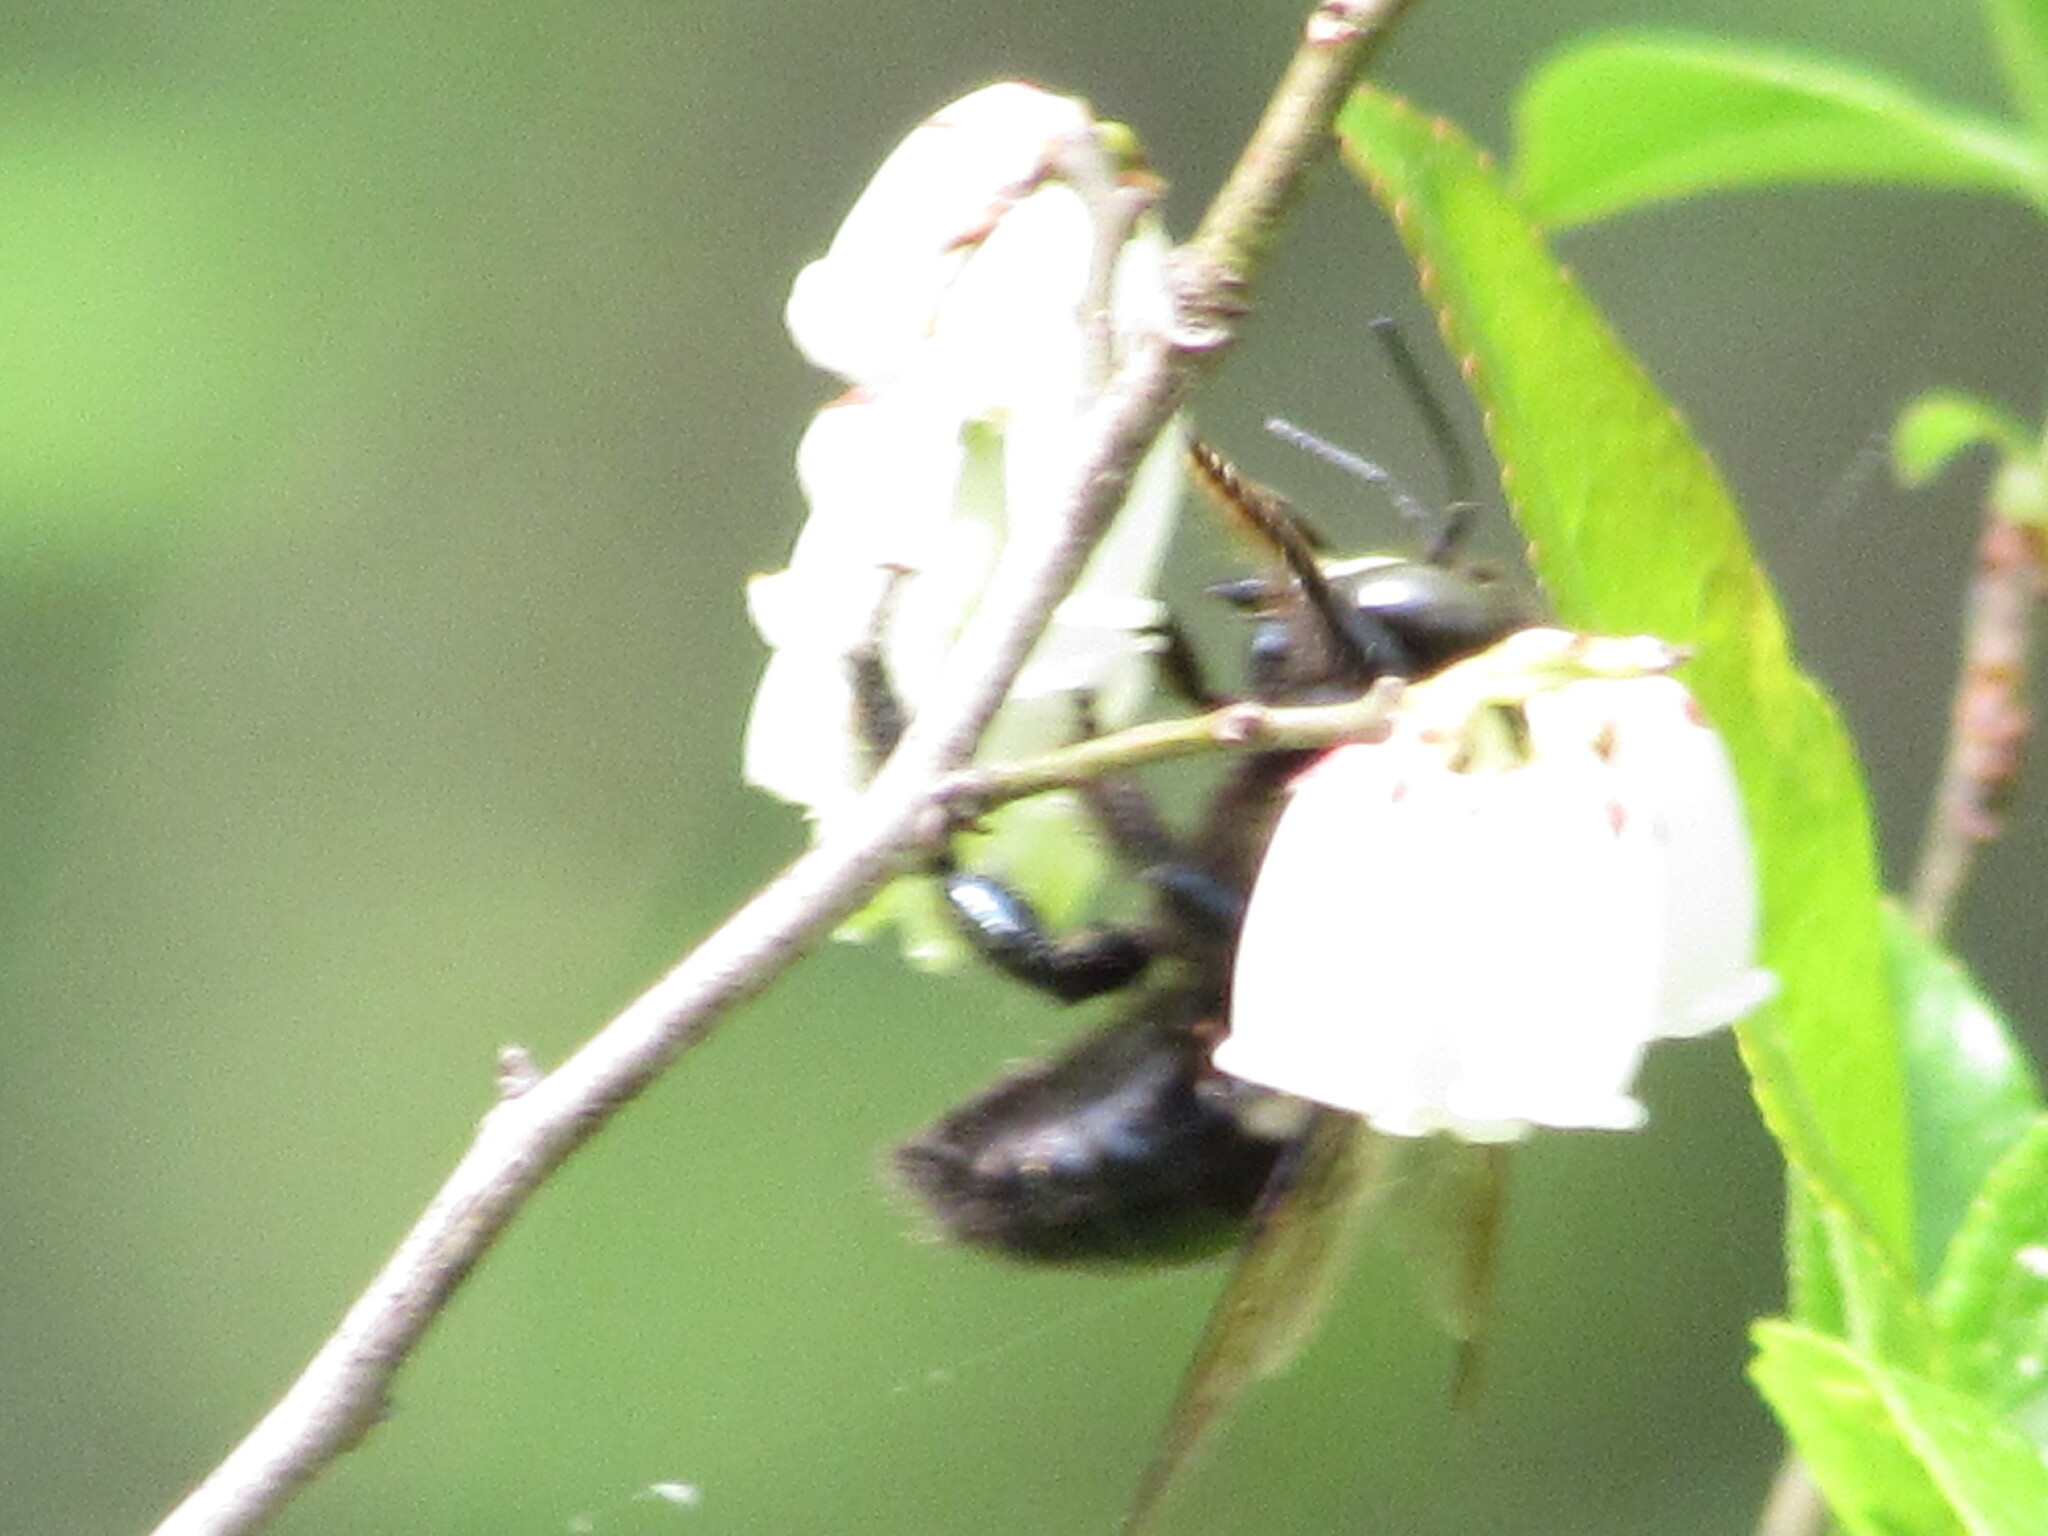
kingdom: Animalia
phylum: Arthropoda
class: Insecta
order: Hymenoptera
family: Apidae
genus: Xylocopa
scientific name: Xylocopa virginica
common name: Carpenter bee
